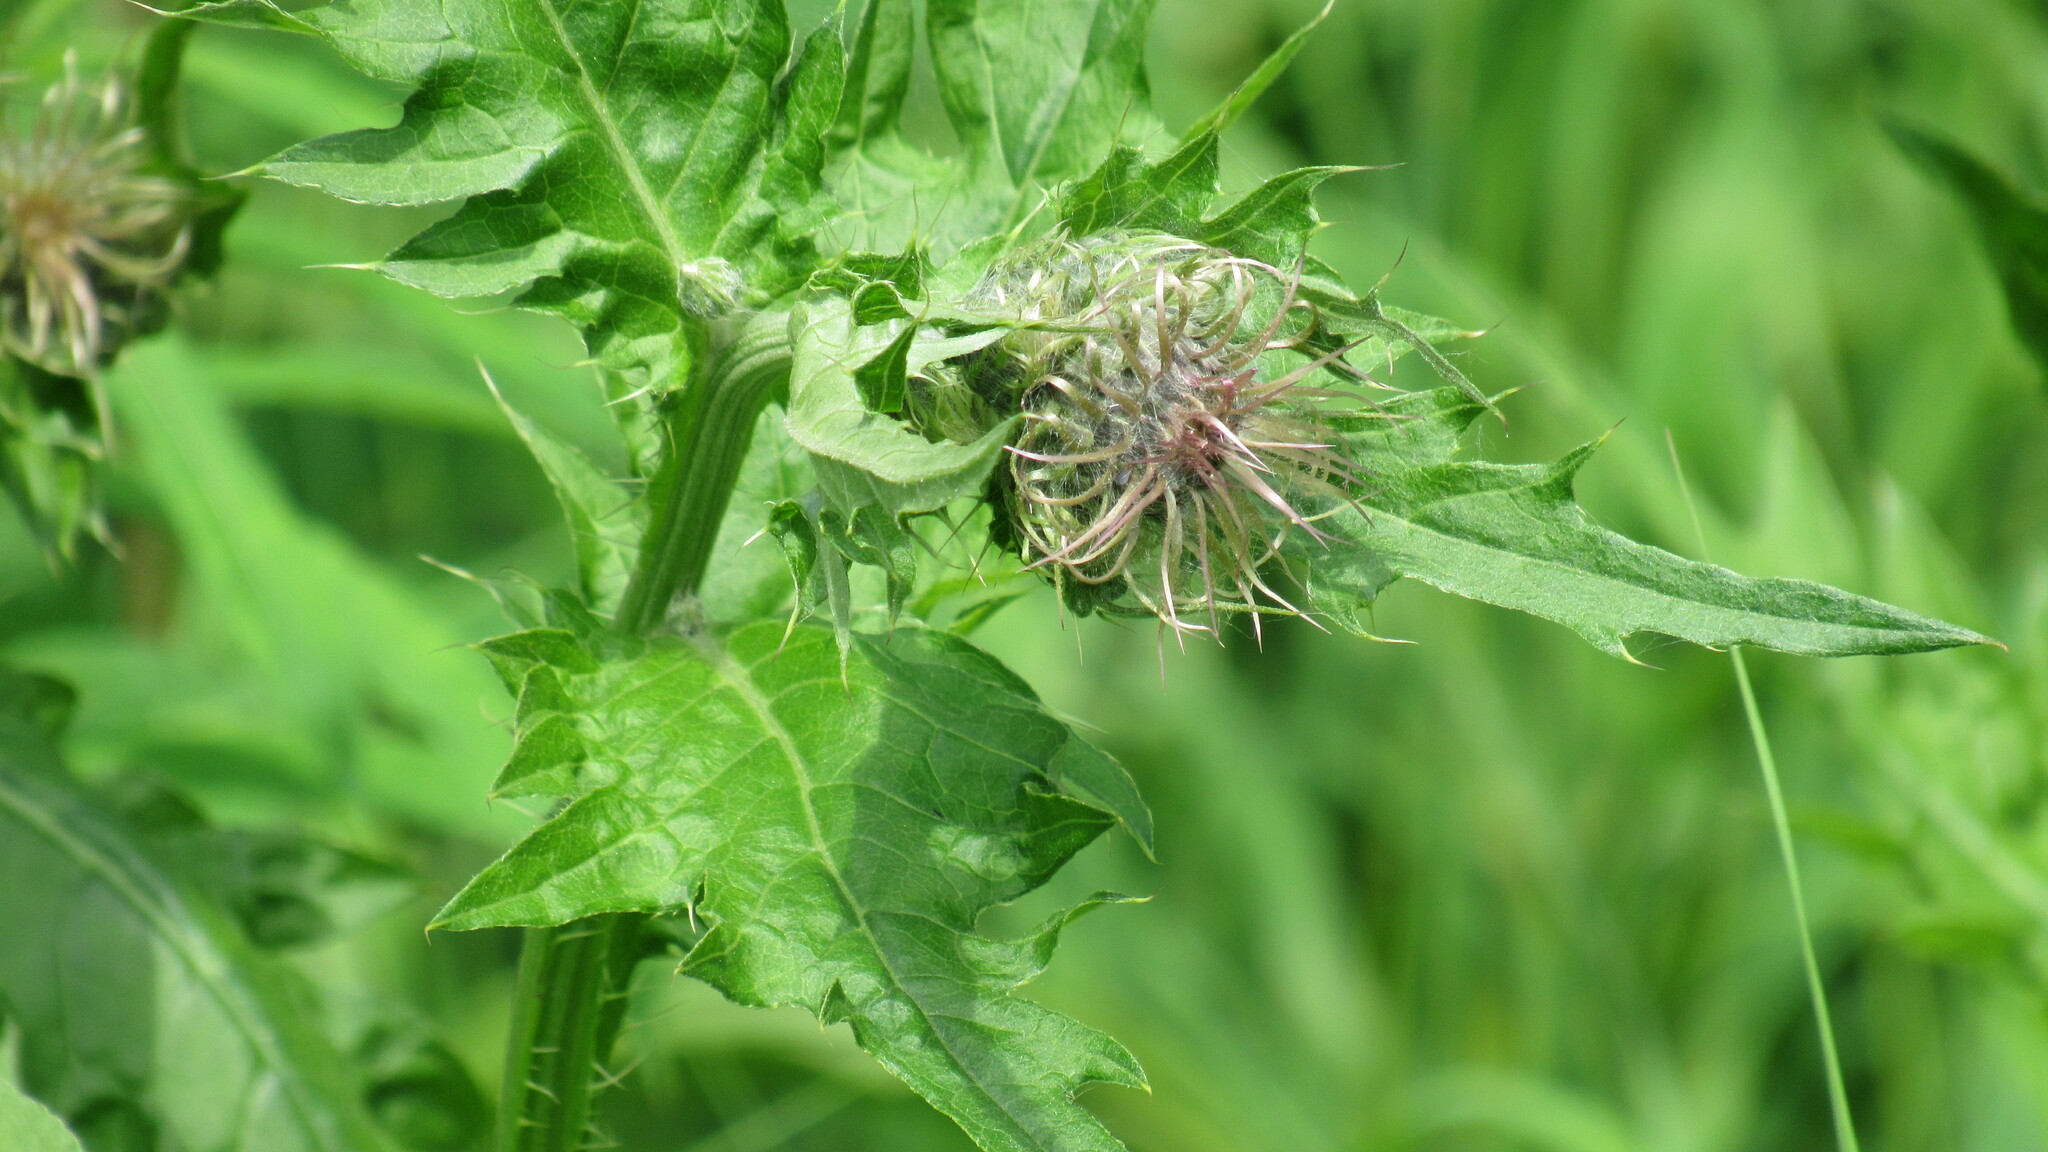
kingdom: Plantae
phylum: Tracheophyta
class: Magnoliopsida
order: Asterales
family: Asteraceae
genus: Cirsium
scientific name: Cirsium kamtschaticum
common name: Kamchatka thistle
